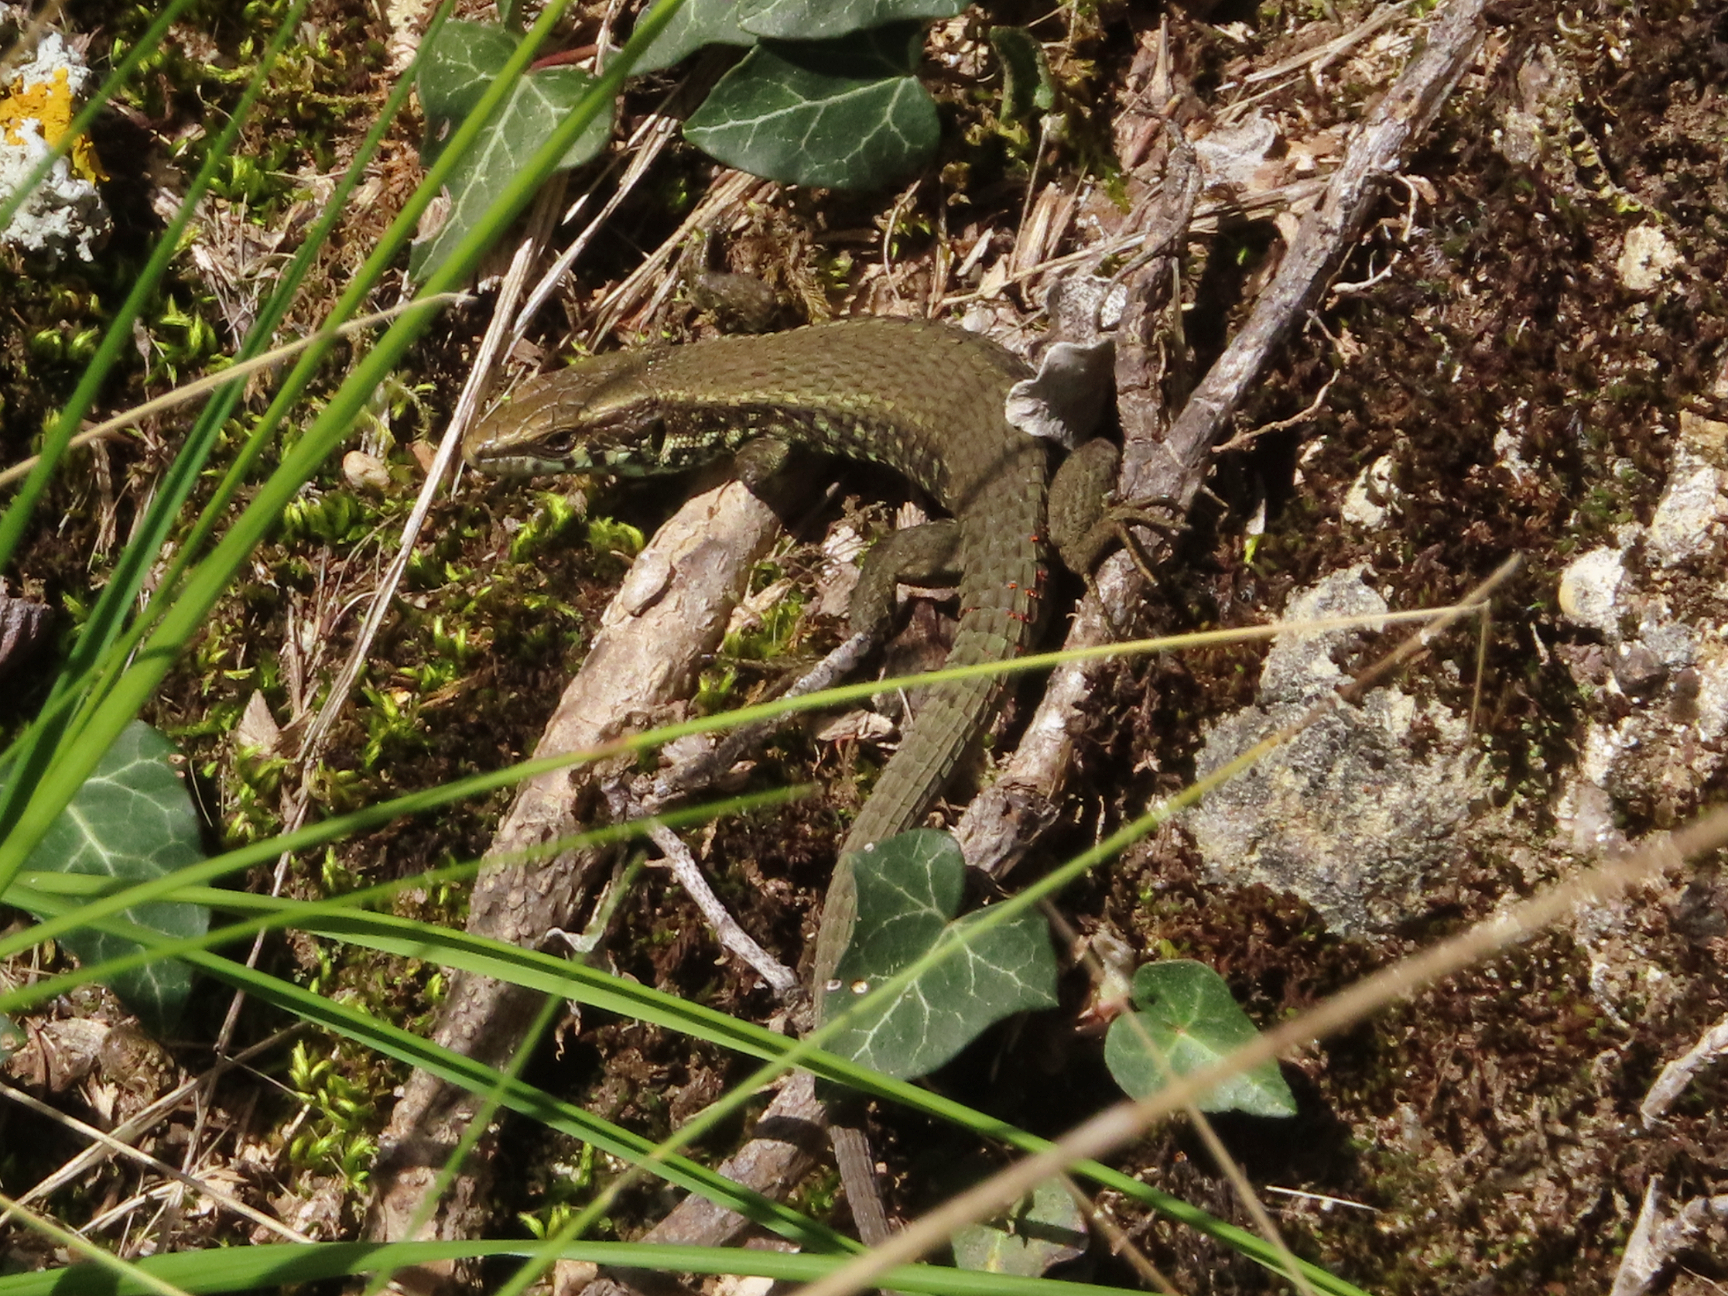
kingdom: Animalia
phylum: Chordata
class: Squamata
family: Lacertidae
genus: Algyroides
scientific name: Algyroides moreoticus
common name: Greek algyroides
